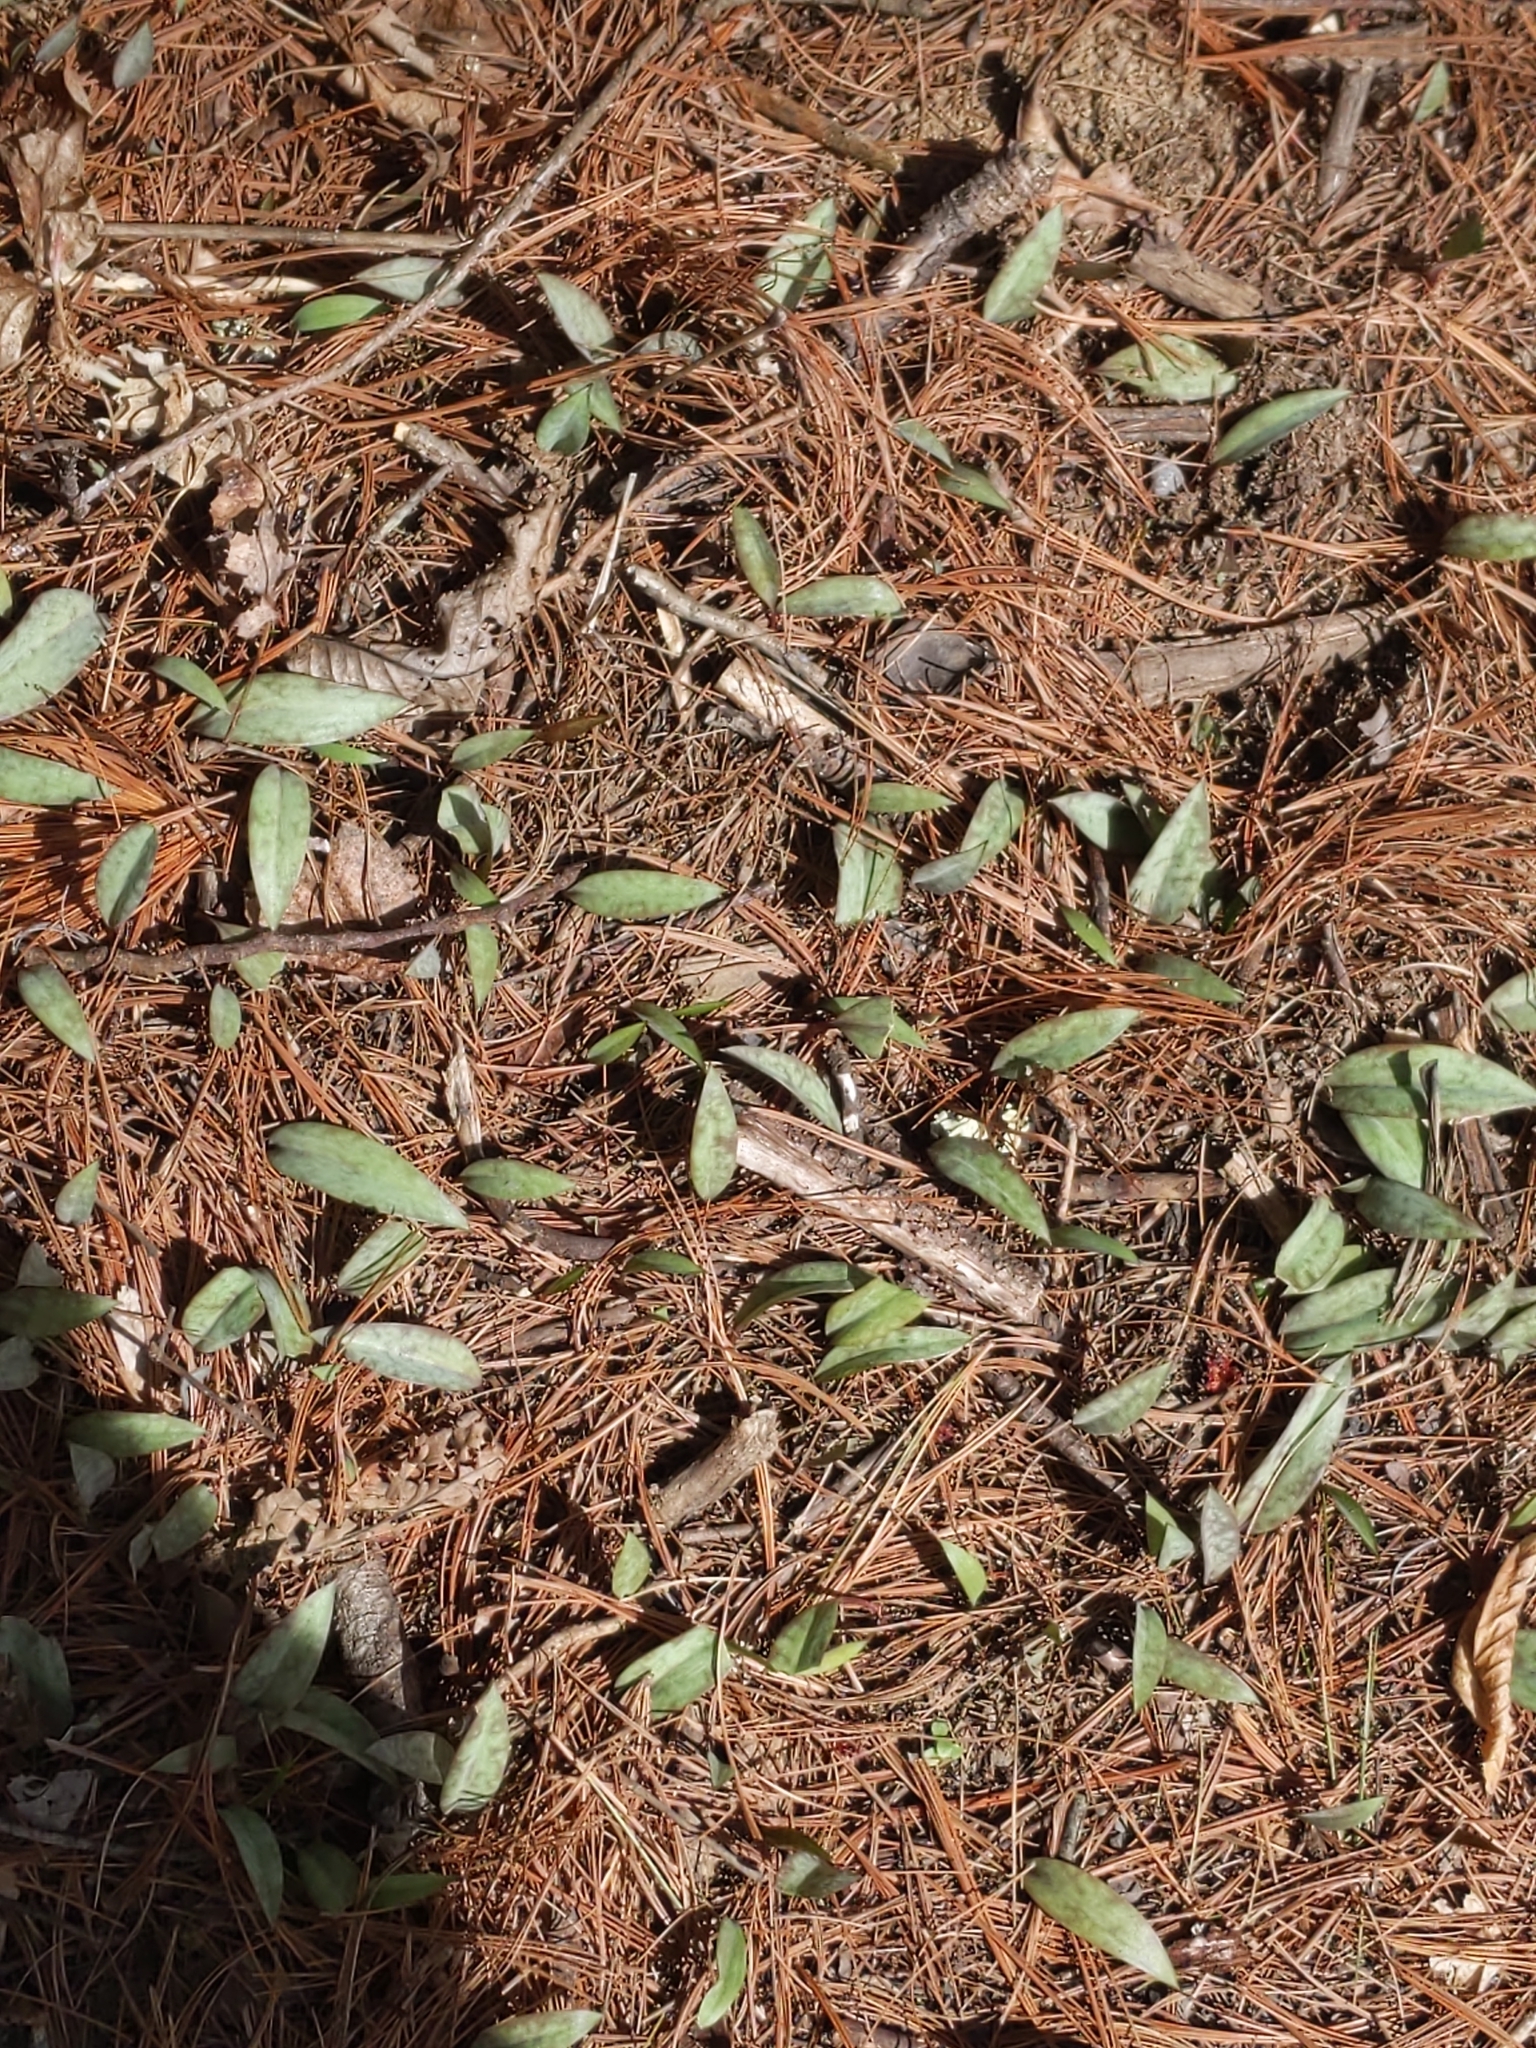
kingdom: Plantae
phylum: Tracheophyta
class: Liliopsida
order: Liliales
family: Liliaceae
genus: Erythronium
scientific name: Erythronium americanum
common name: Yellow adder's-tongue
